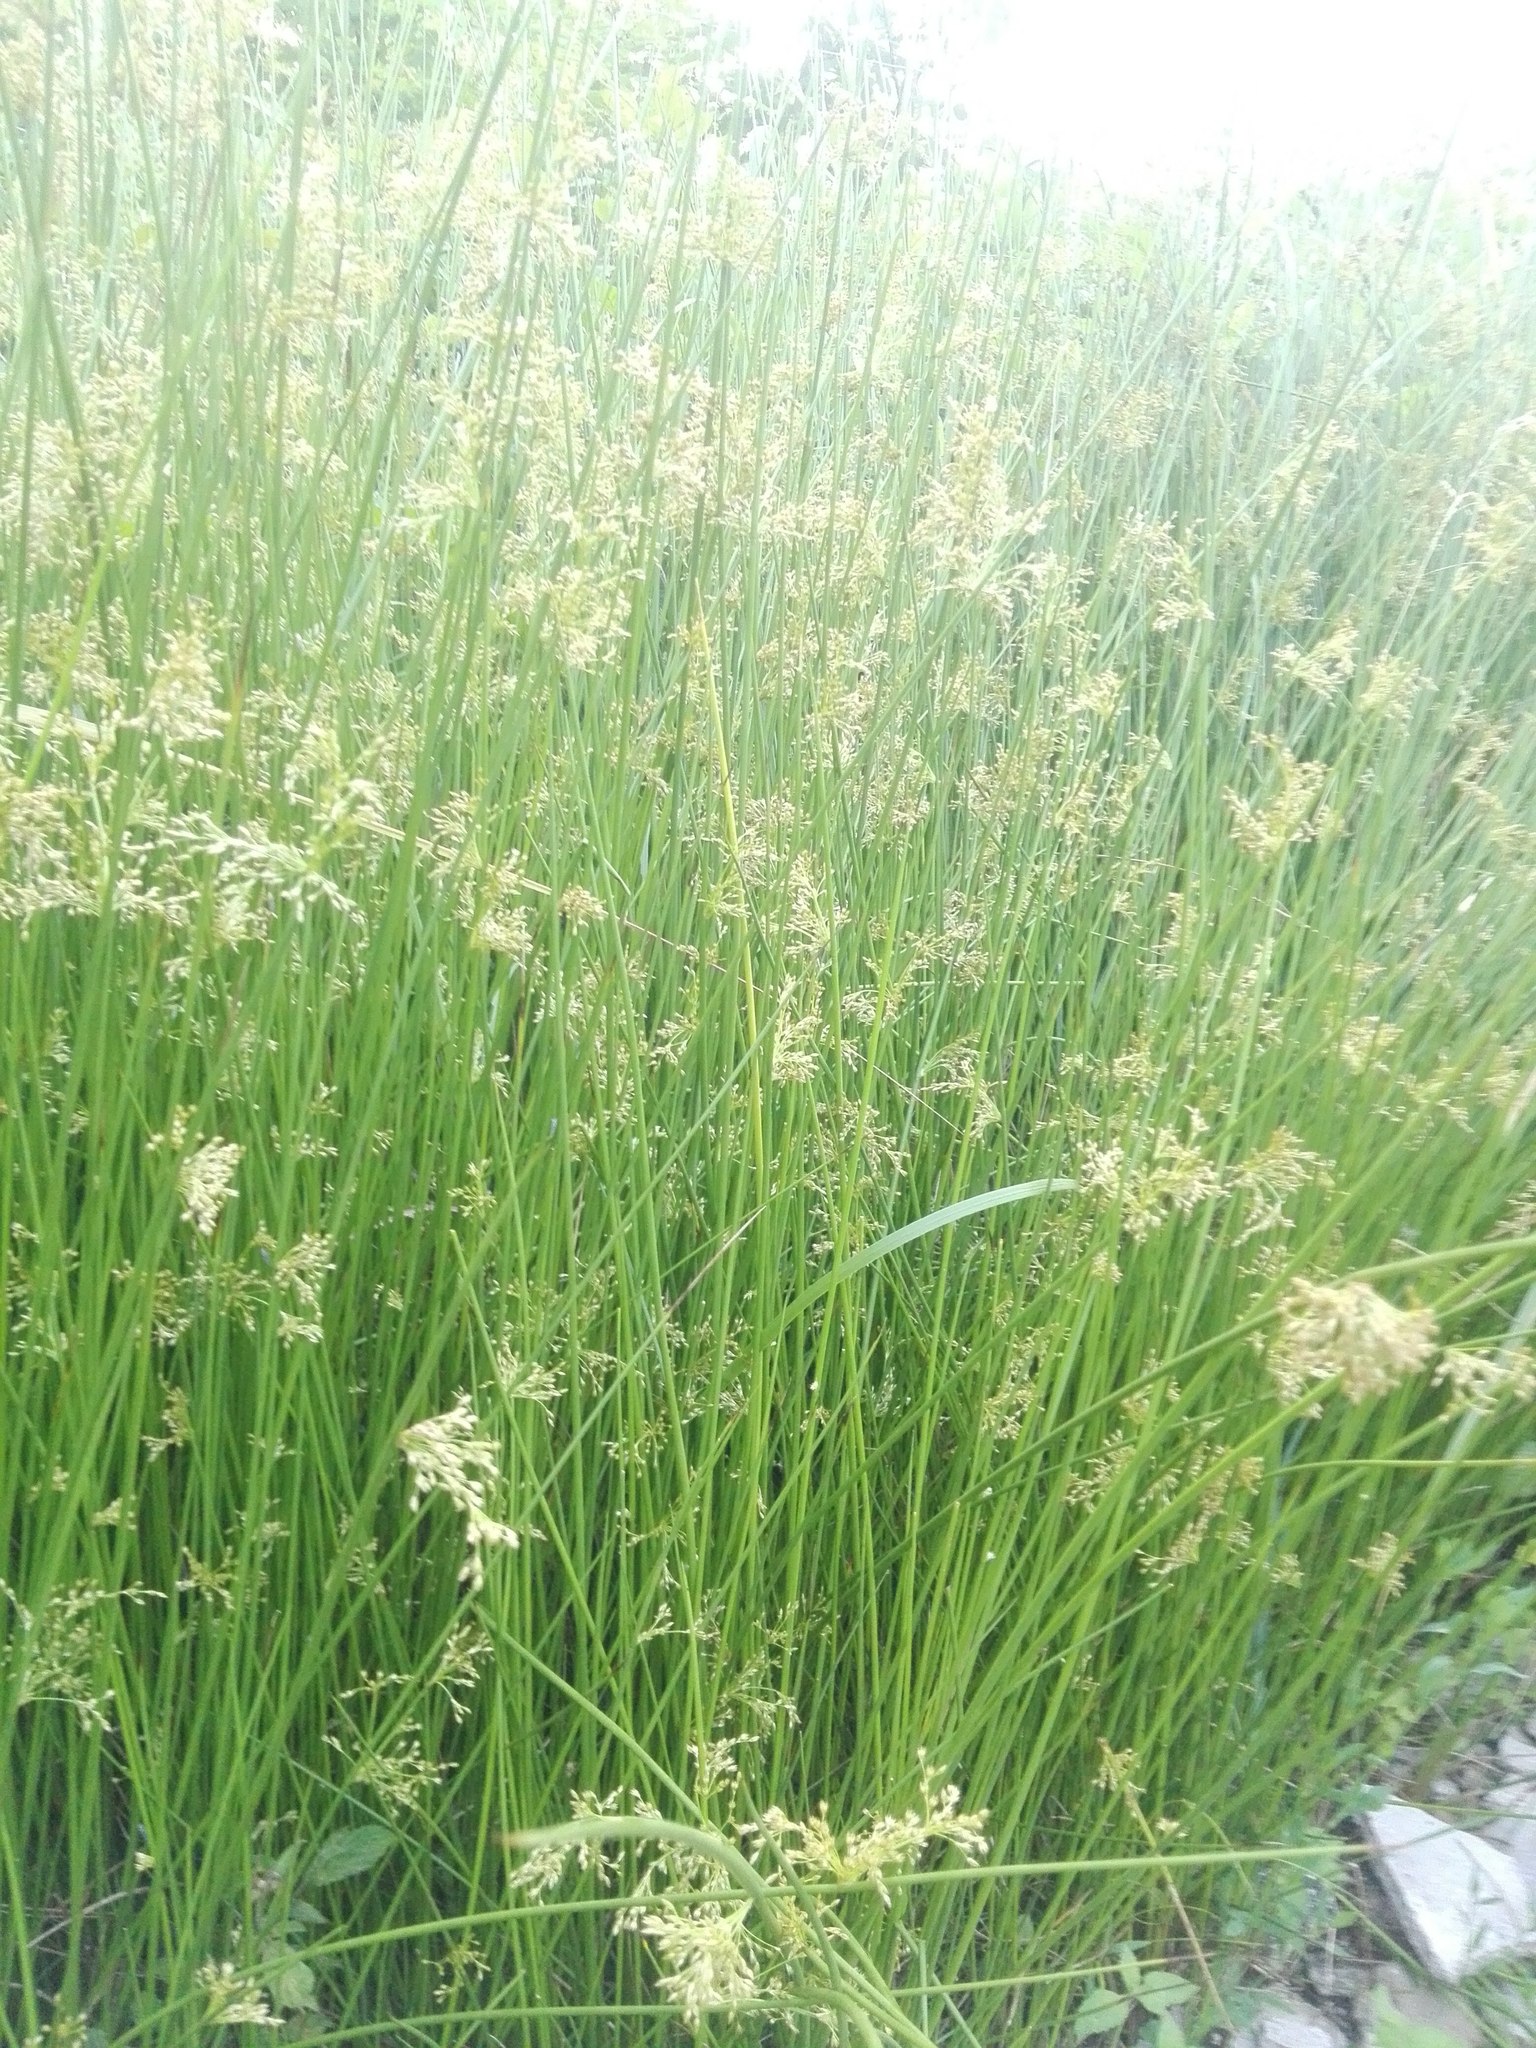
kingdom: Plantae
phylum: Tracheophyta
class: Liliopsida
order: Poales
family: Juncaceae
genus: Juncus
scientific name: Juncus effusus
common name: Soft rush
